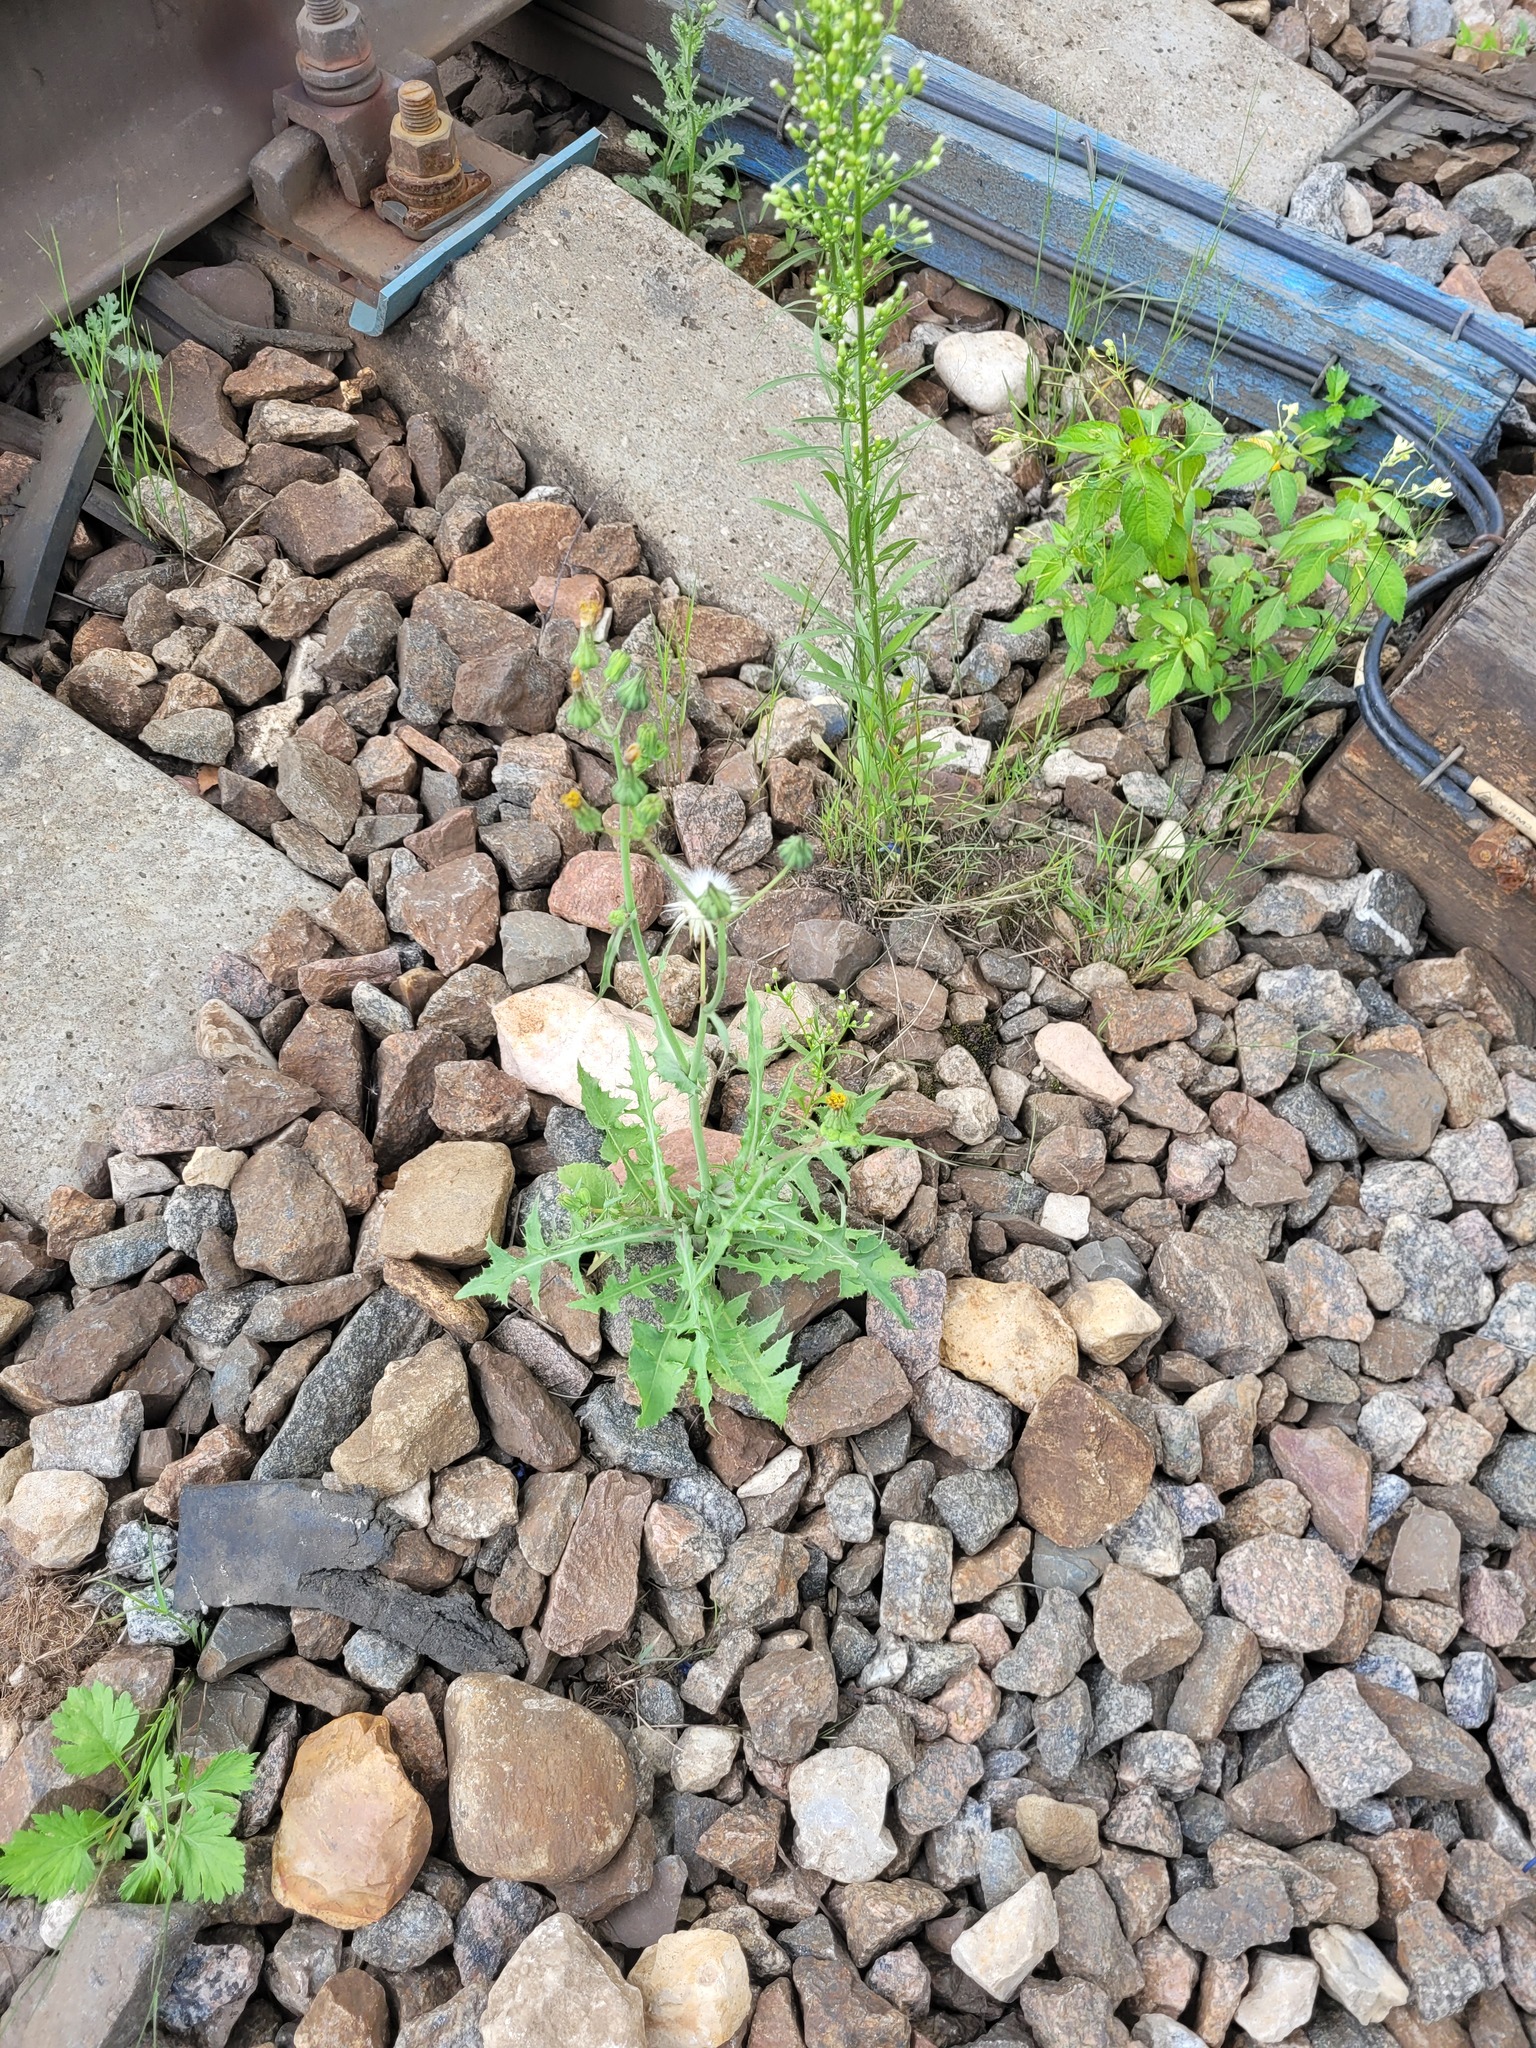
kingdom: Plantae
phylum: Tracheophyta
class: Magnoliopsida
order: Asterales
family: Asteraceae
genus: Sonchus
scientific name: Sonchus oleraceus
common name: Common sowthistle
